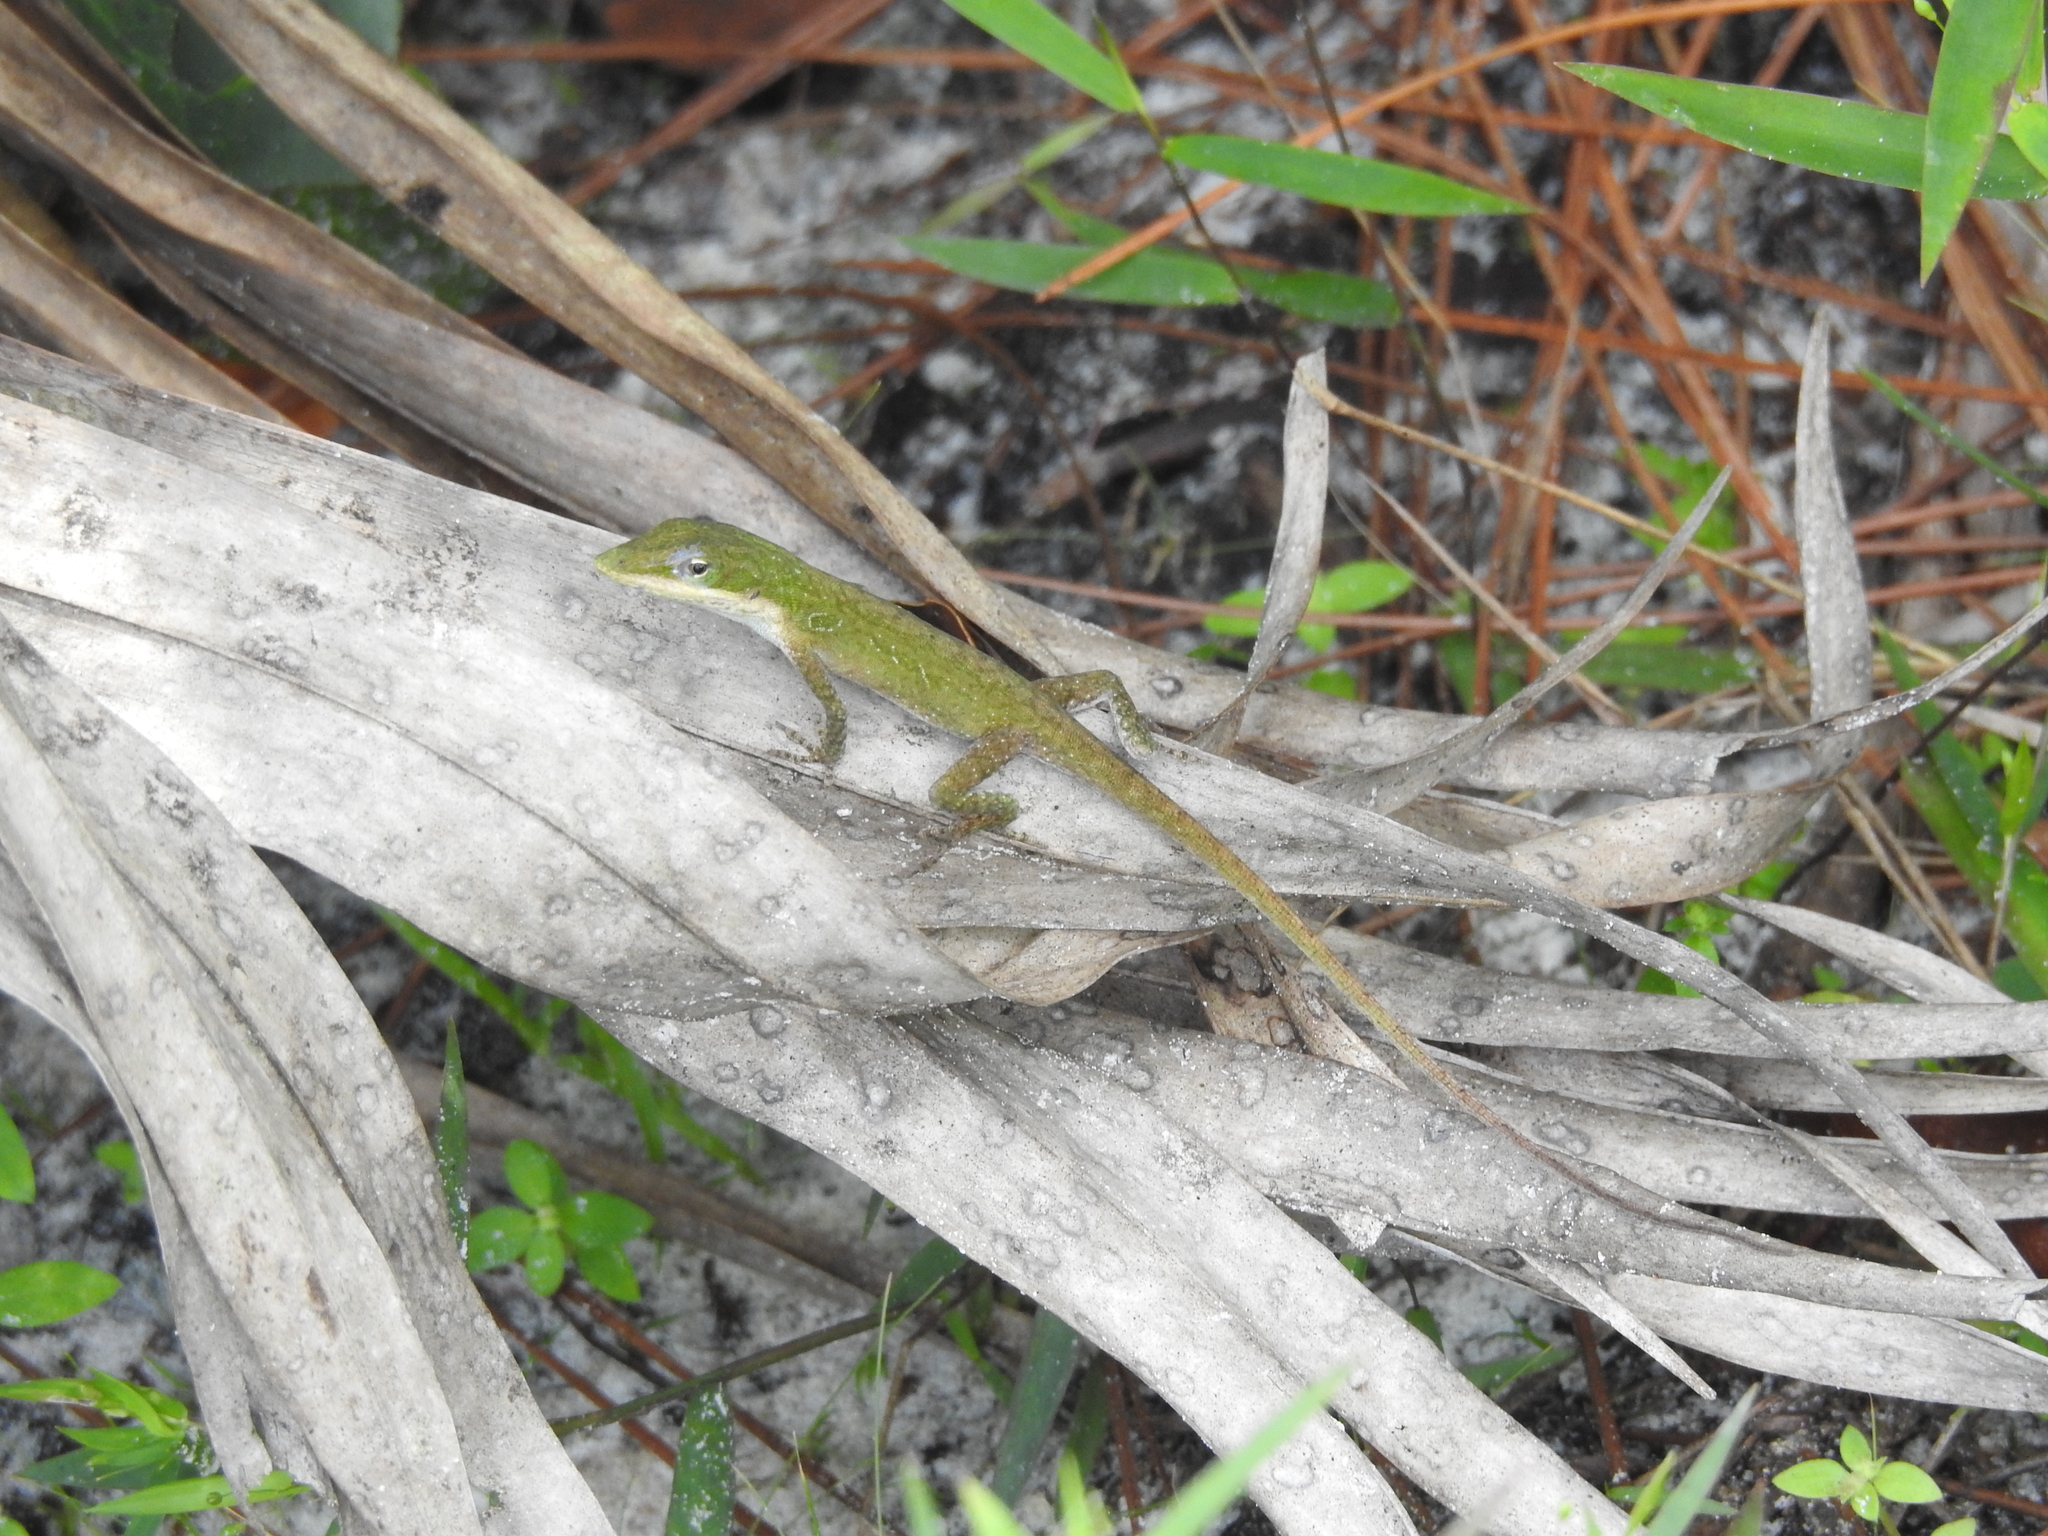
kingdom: Animalia
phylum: Chordata
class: Squamata
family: Dactyloidae
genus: Anolis
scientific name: Anolis carolinensis
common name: Green anole
